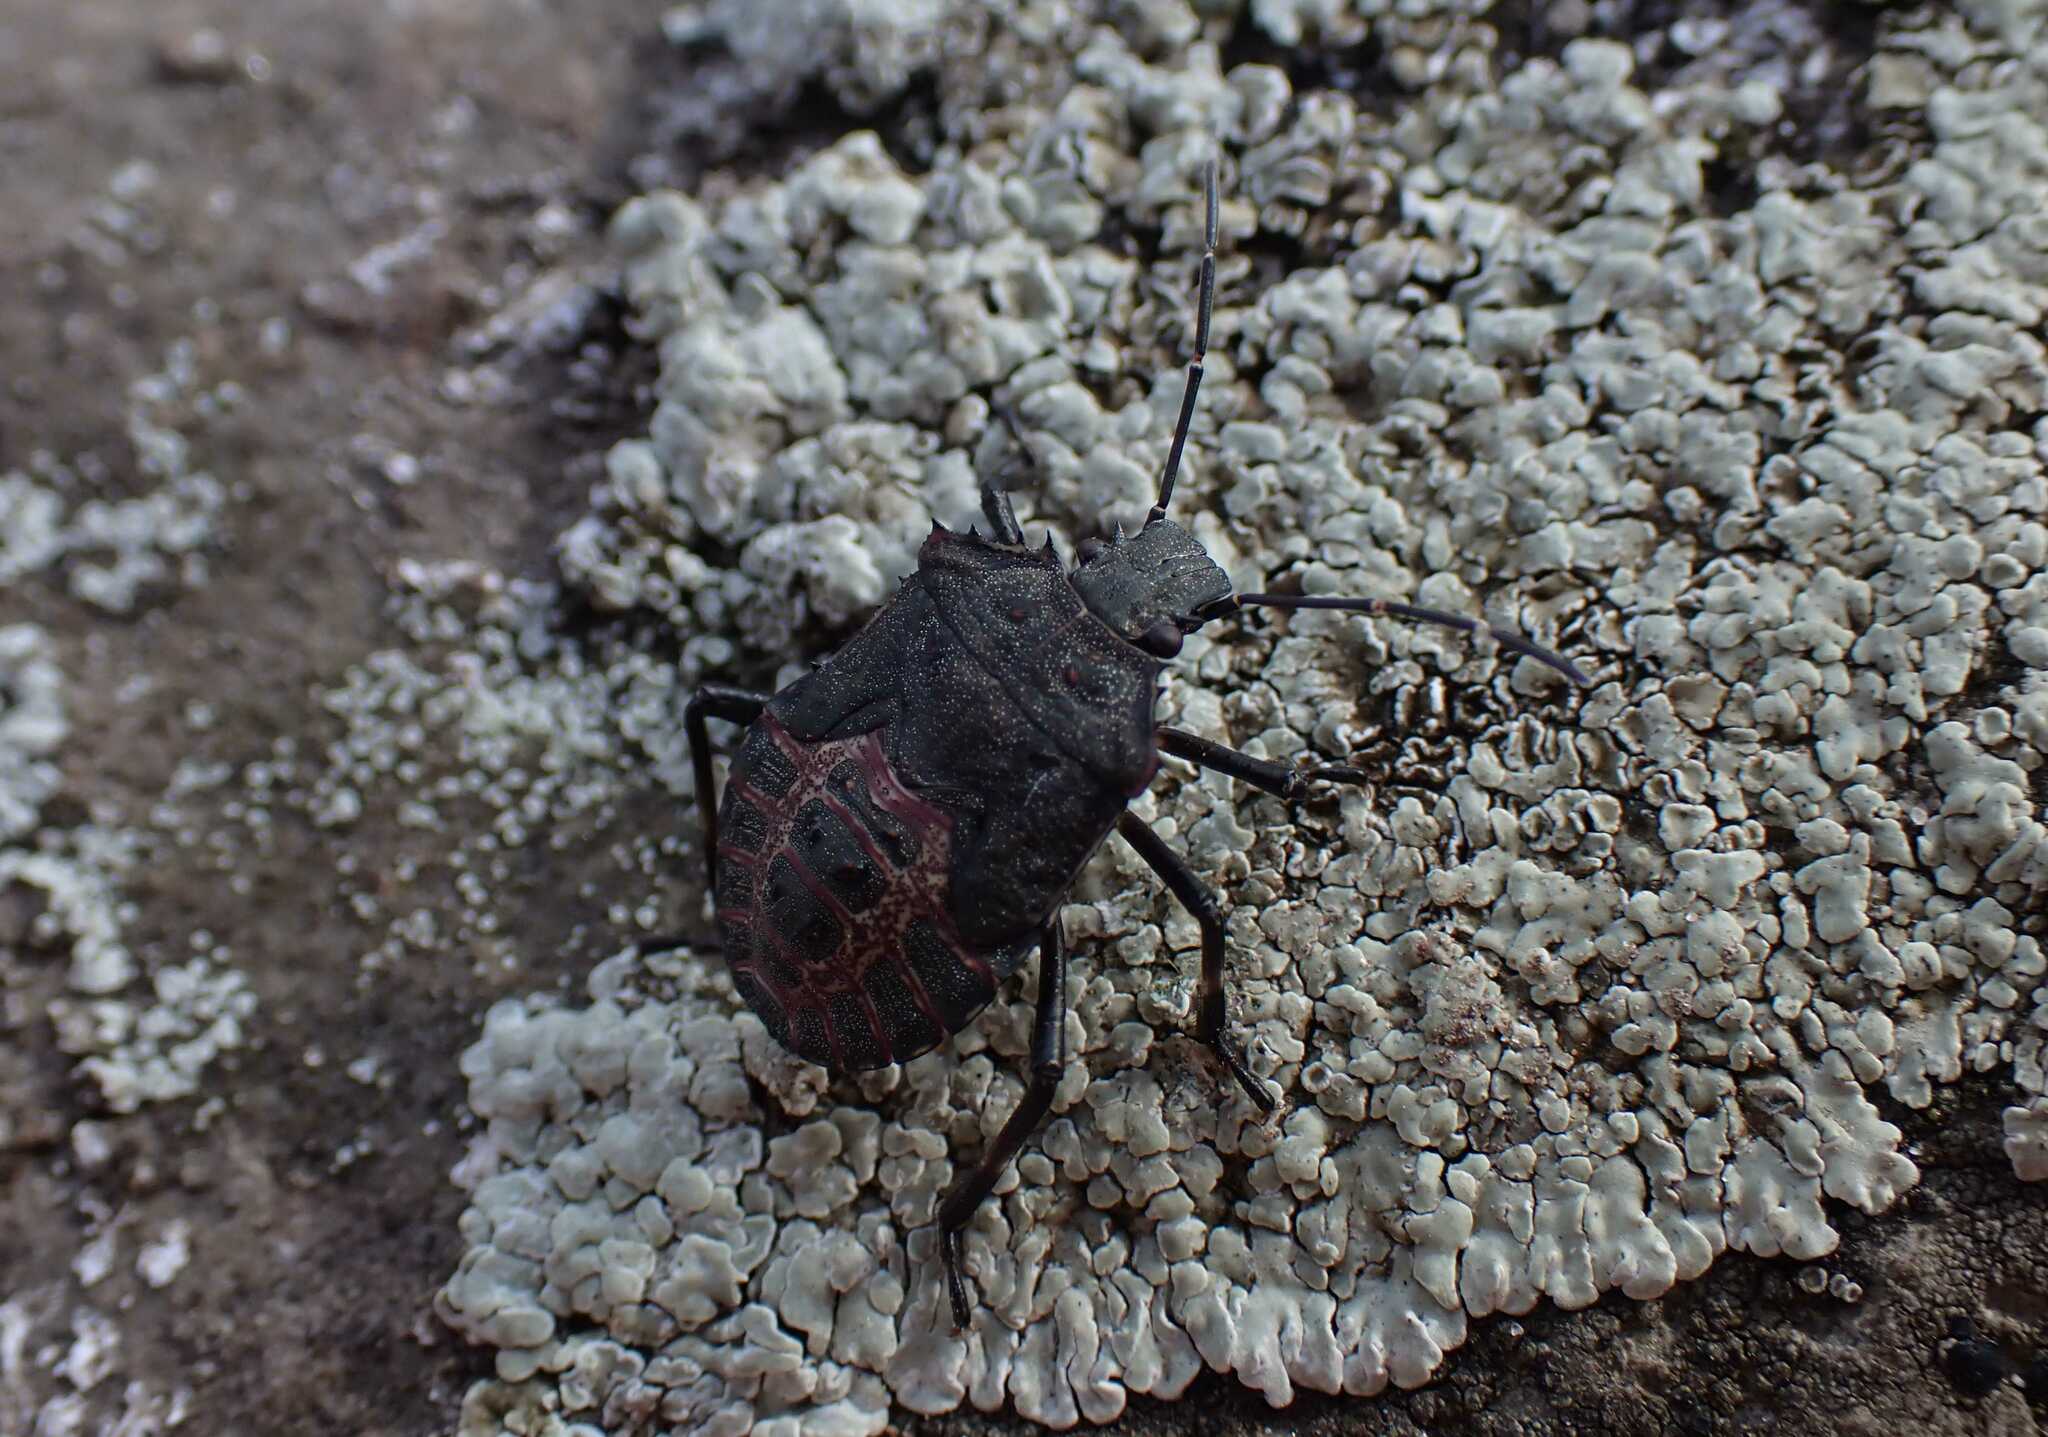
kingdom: Animalia
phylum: Arthropoda
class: Insecta
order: Hemiptera
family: Pentatomidae
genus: Halyomorpha
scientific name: Halyomorpha halys
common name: Brown marmorated stink bug
